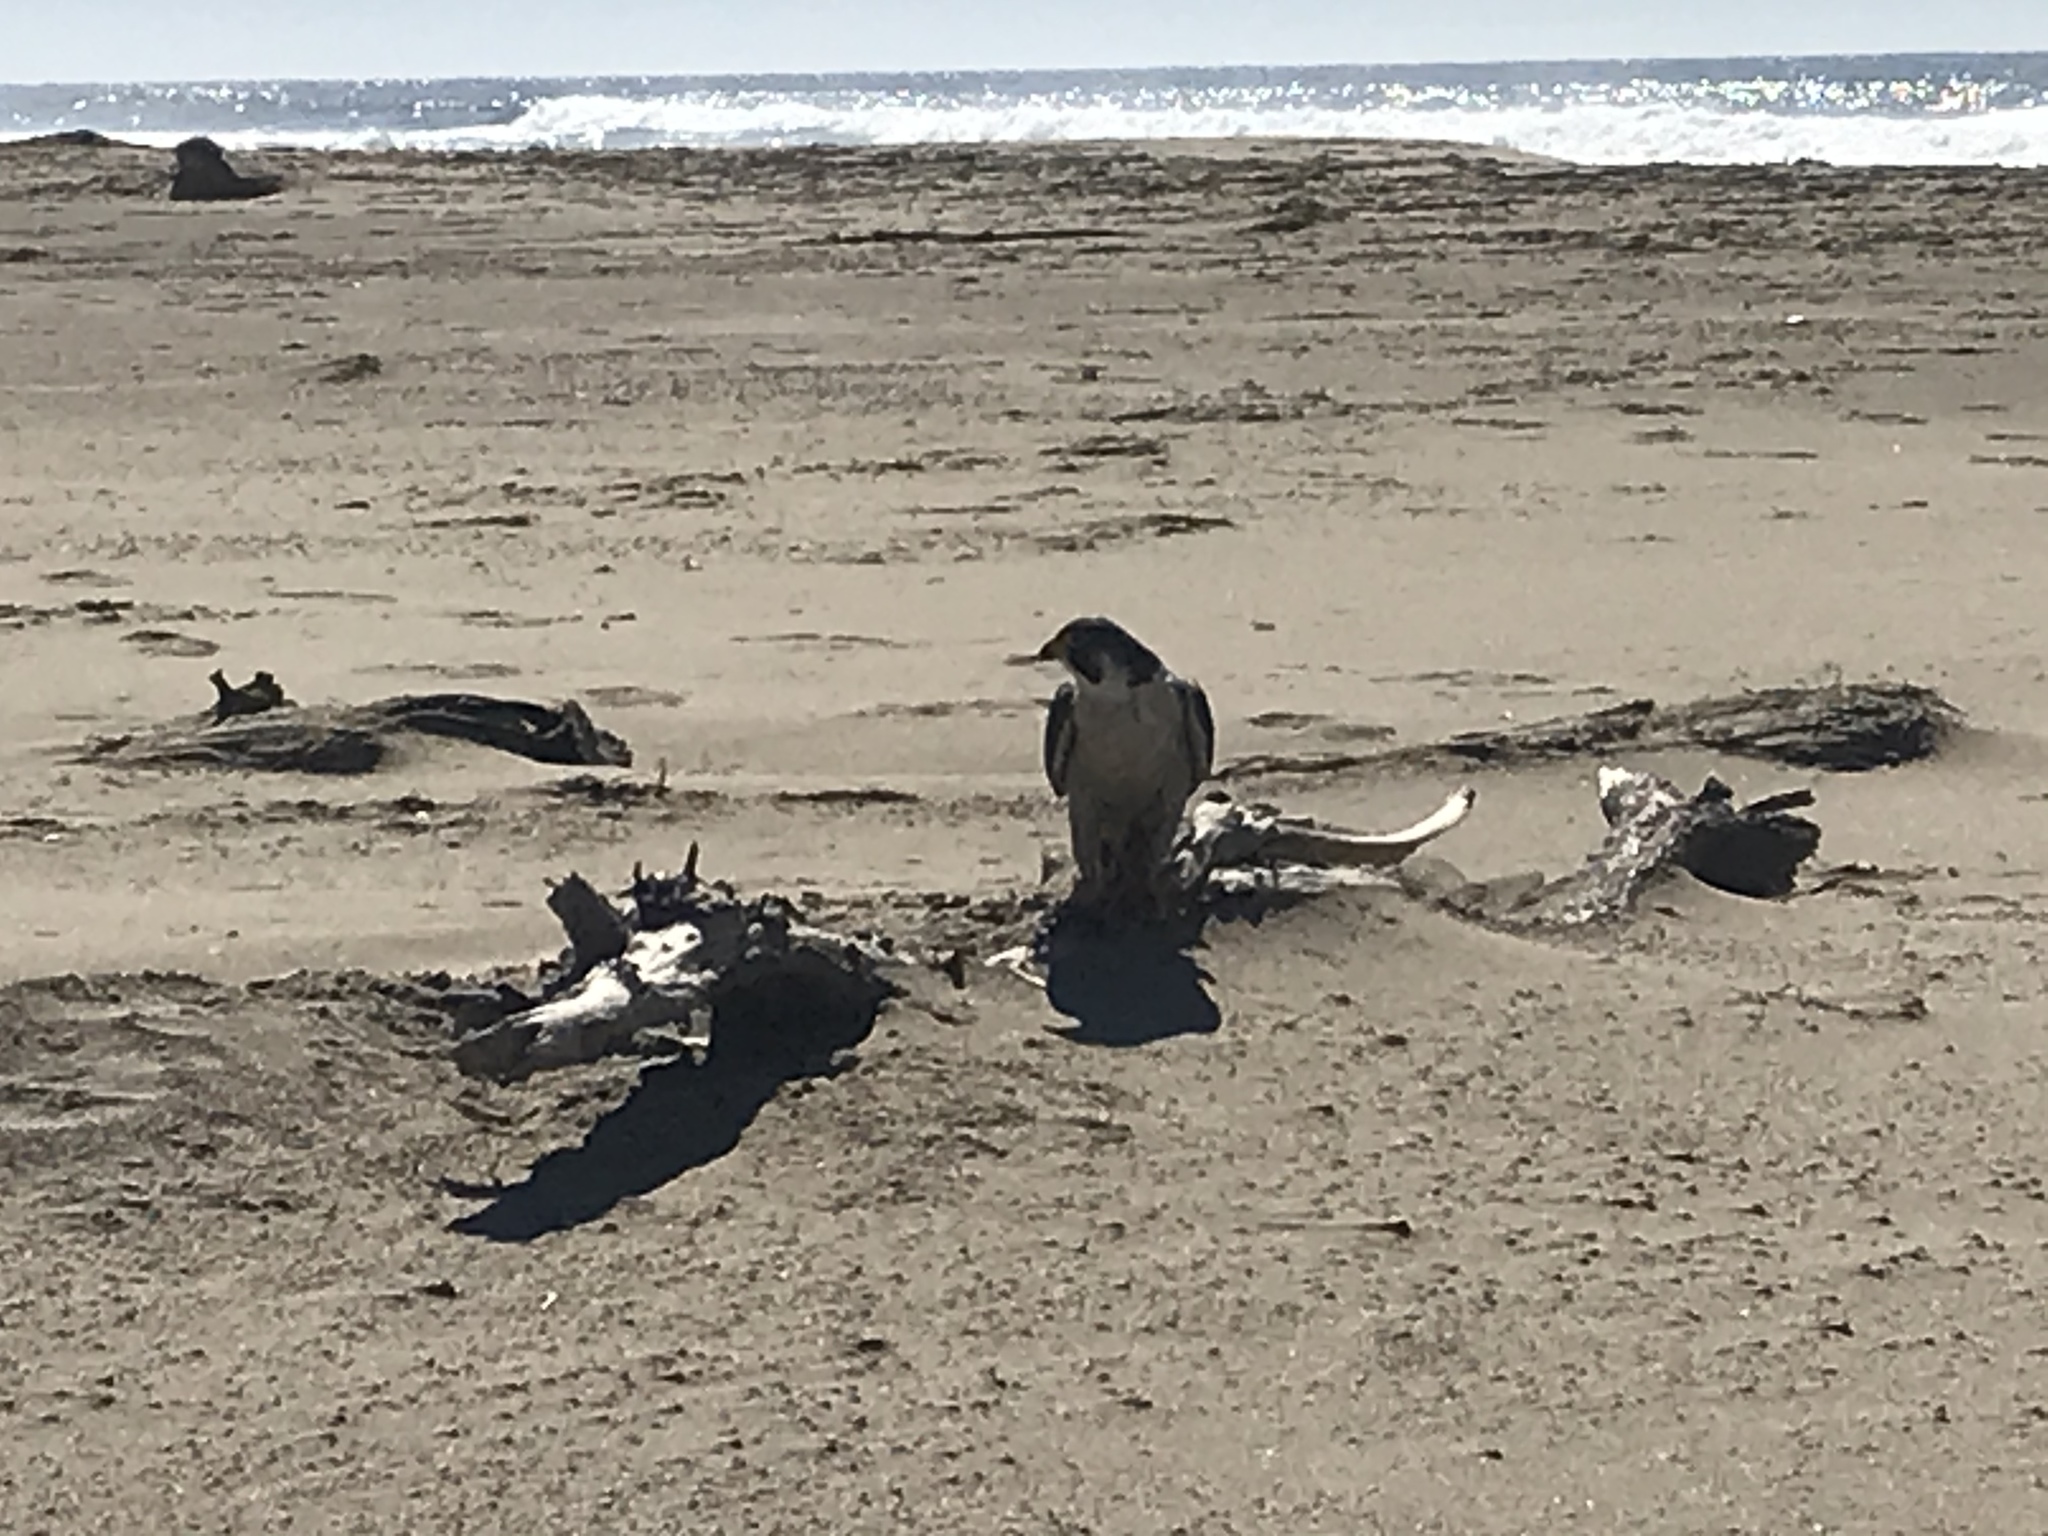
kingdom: Animalia
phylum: Chordata
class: Aves
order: Falconiformes
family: Falconidae
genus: Falco
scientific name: Falco peregrinus
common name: Peregrine falcon
